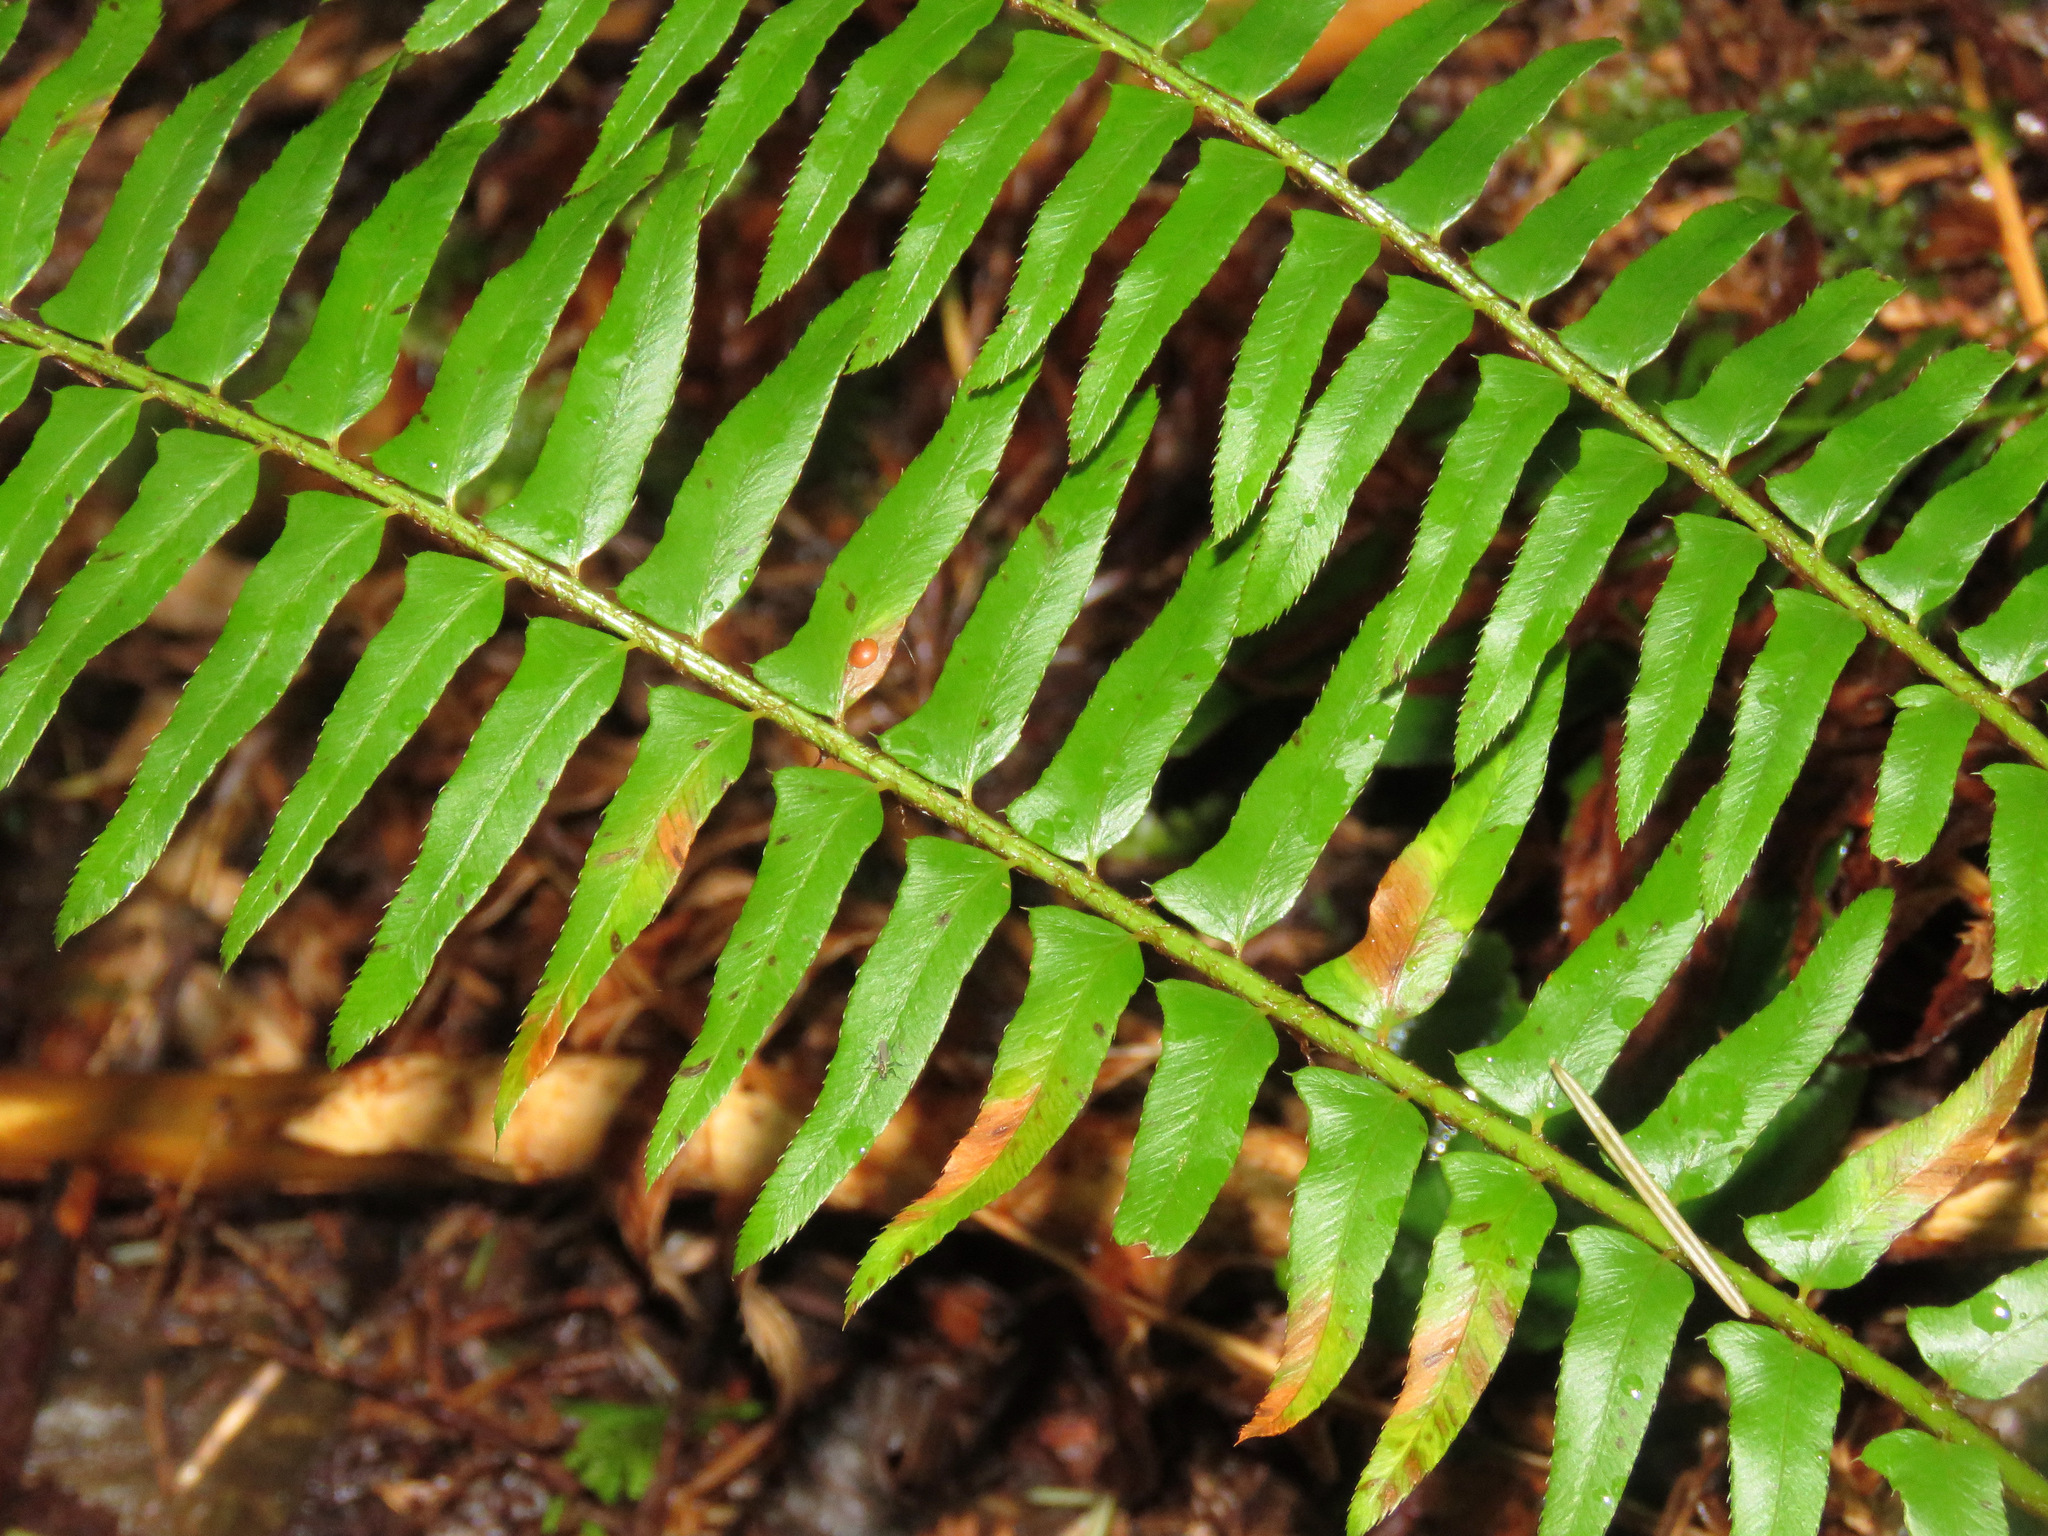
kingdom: Plantae
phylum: Tracheophyta
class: Polypodiopsida
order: Polypodiales
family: Dryopteridaceae
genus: Polystichum
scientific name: Polystichum munitum
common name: Western sword-fern
